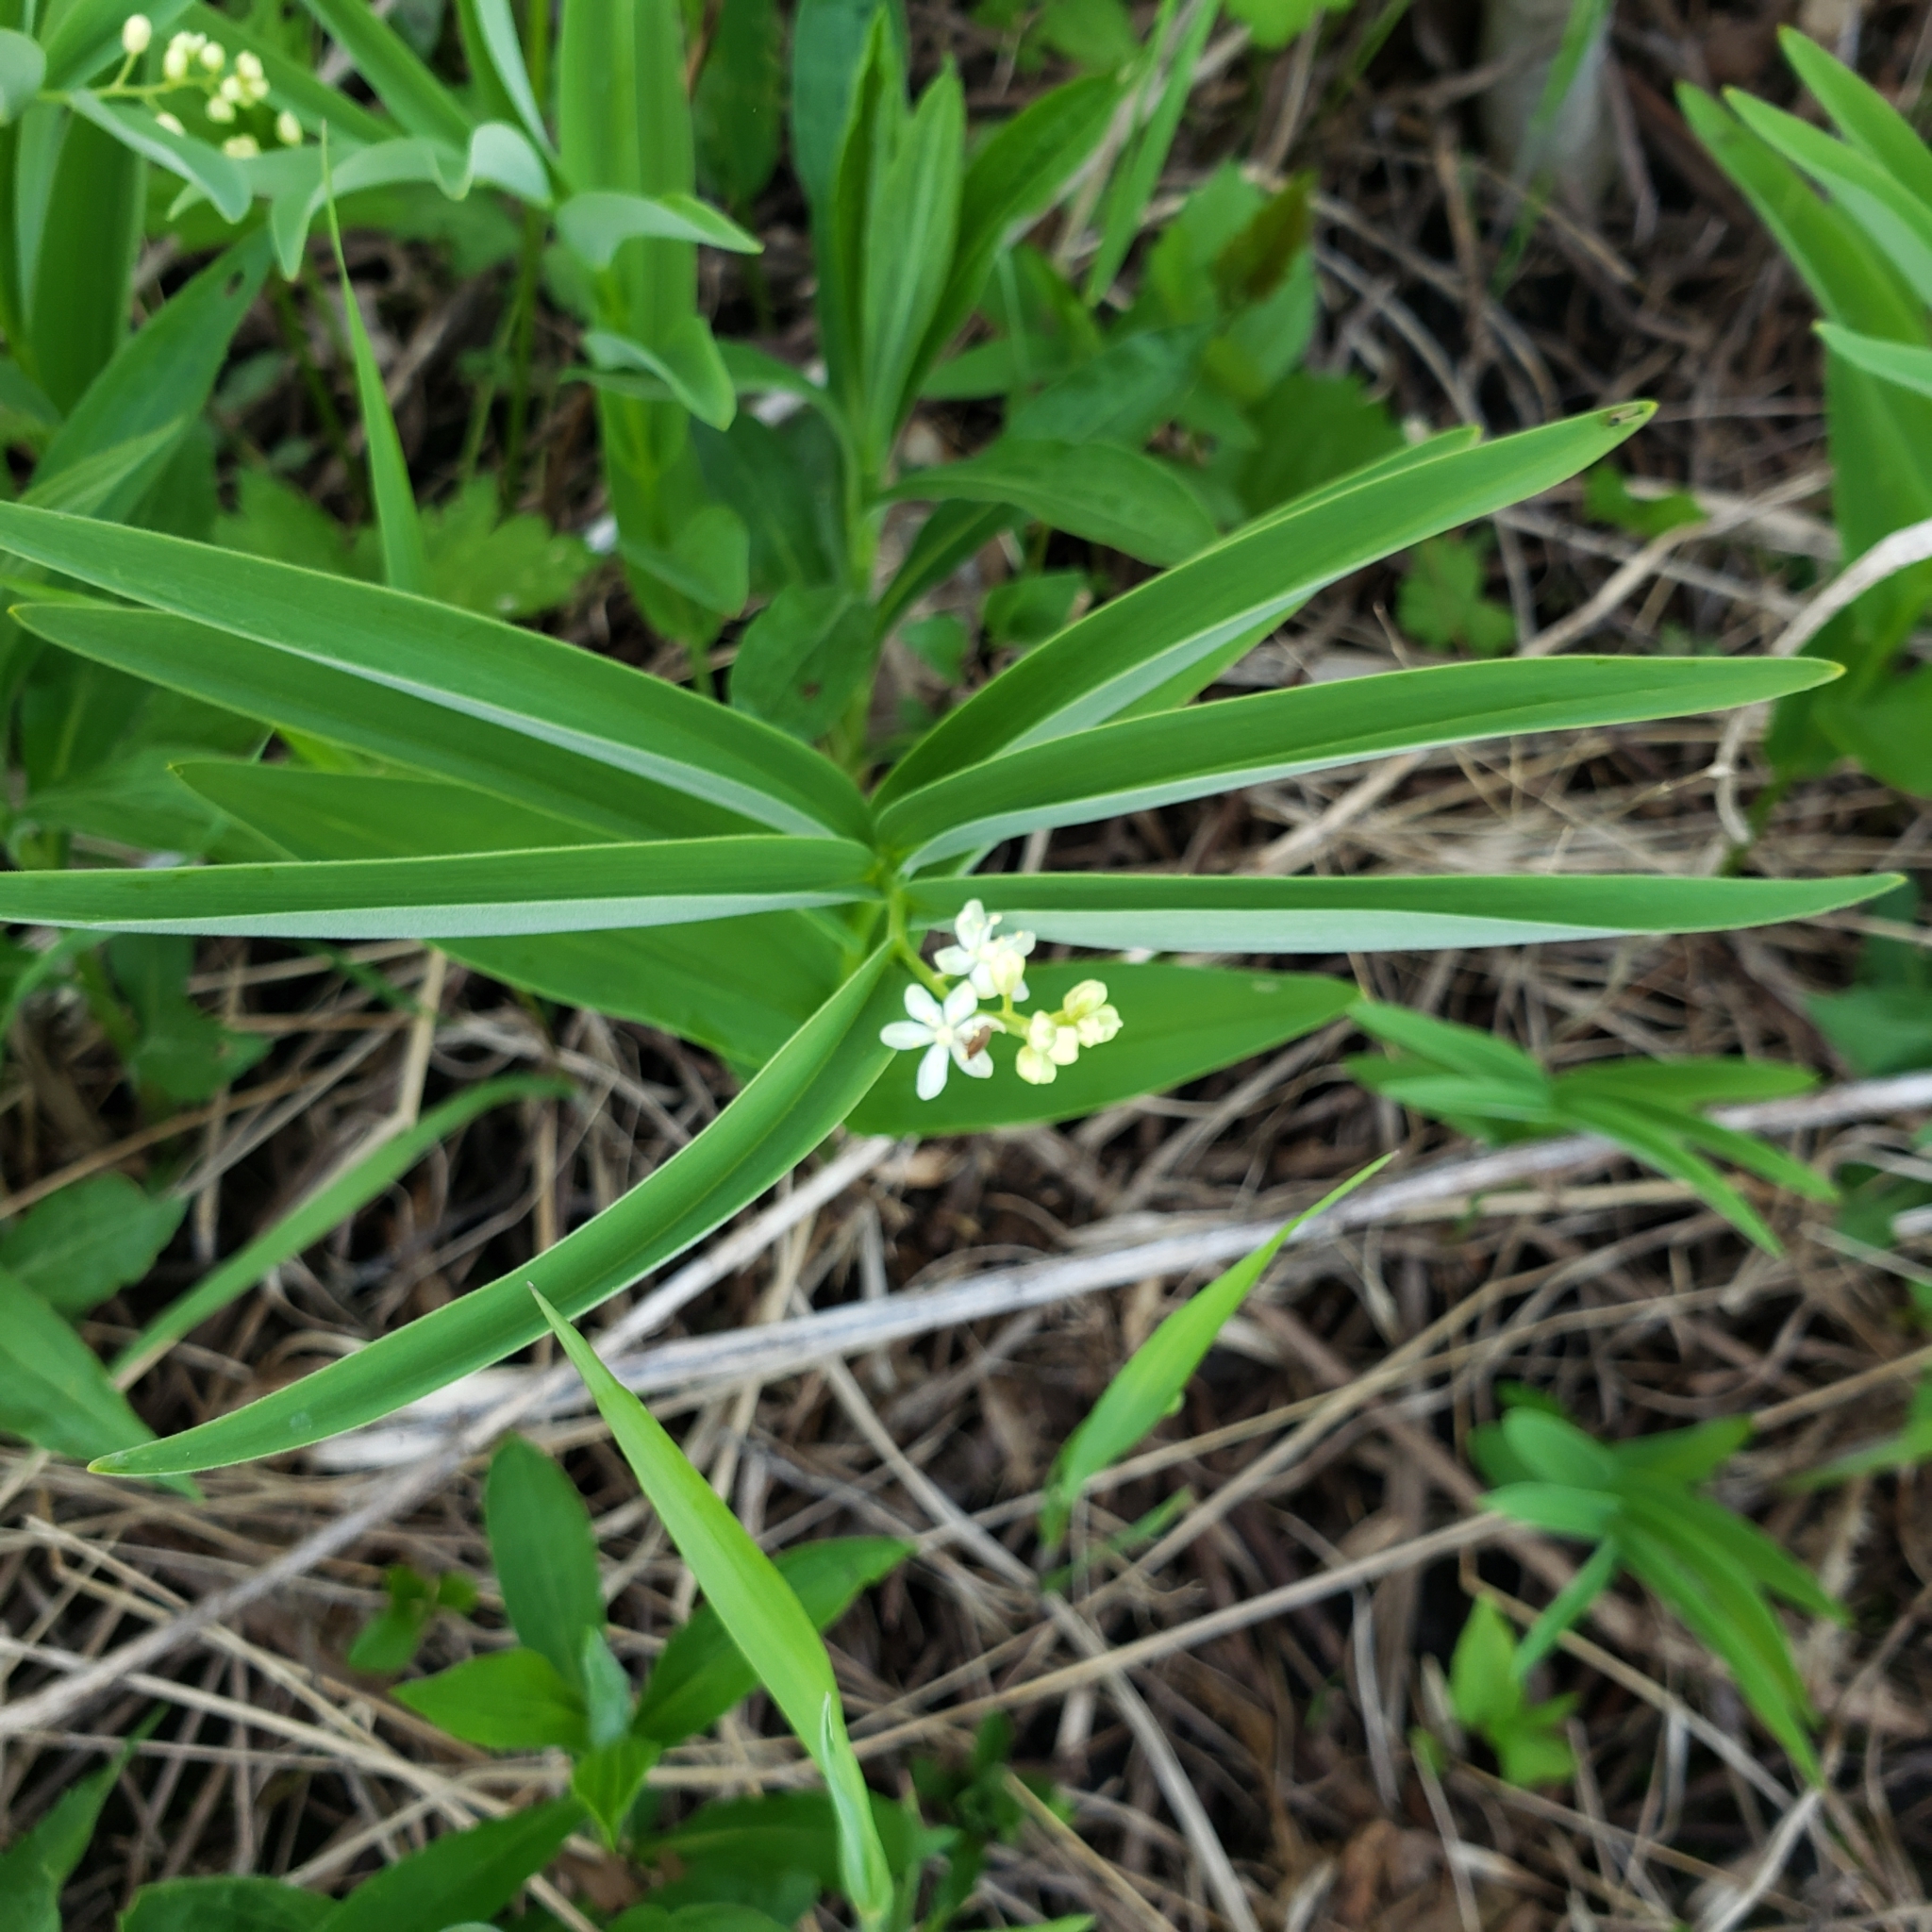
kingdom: Plantae
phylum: Tracheophyta
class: Liliopsida
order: Asparagales
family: Asparagaceae
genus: Maianthemum
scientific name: Maianthemum stellatum
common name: Little false solomon's seal
